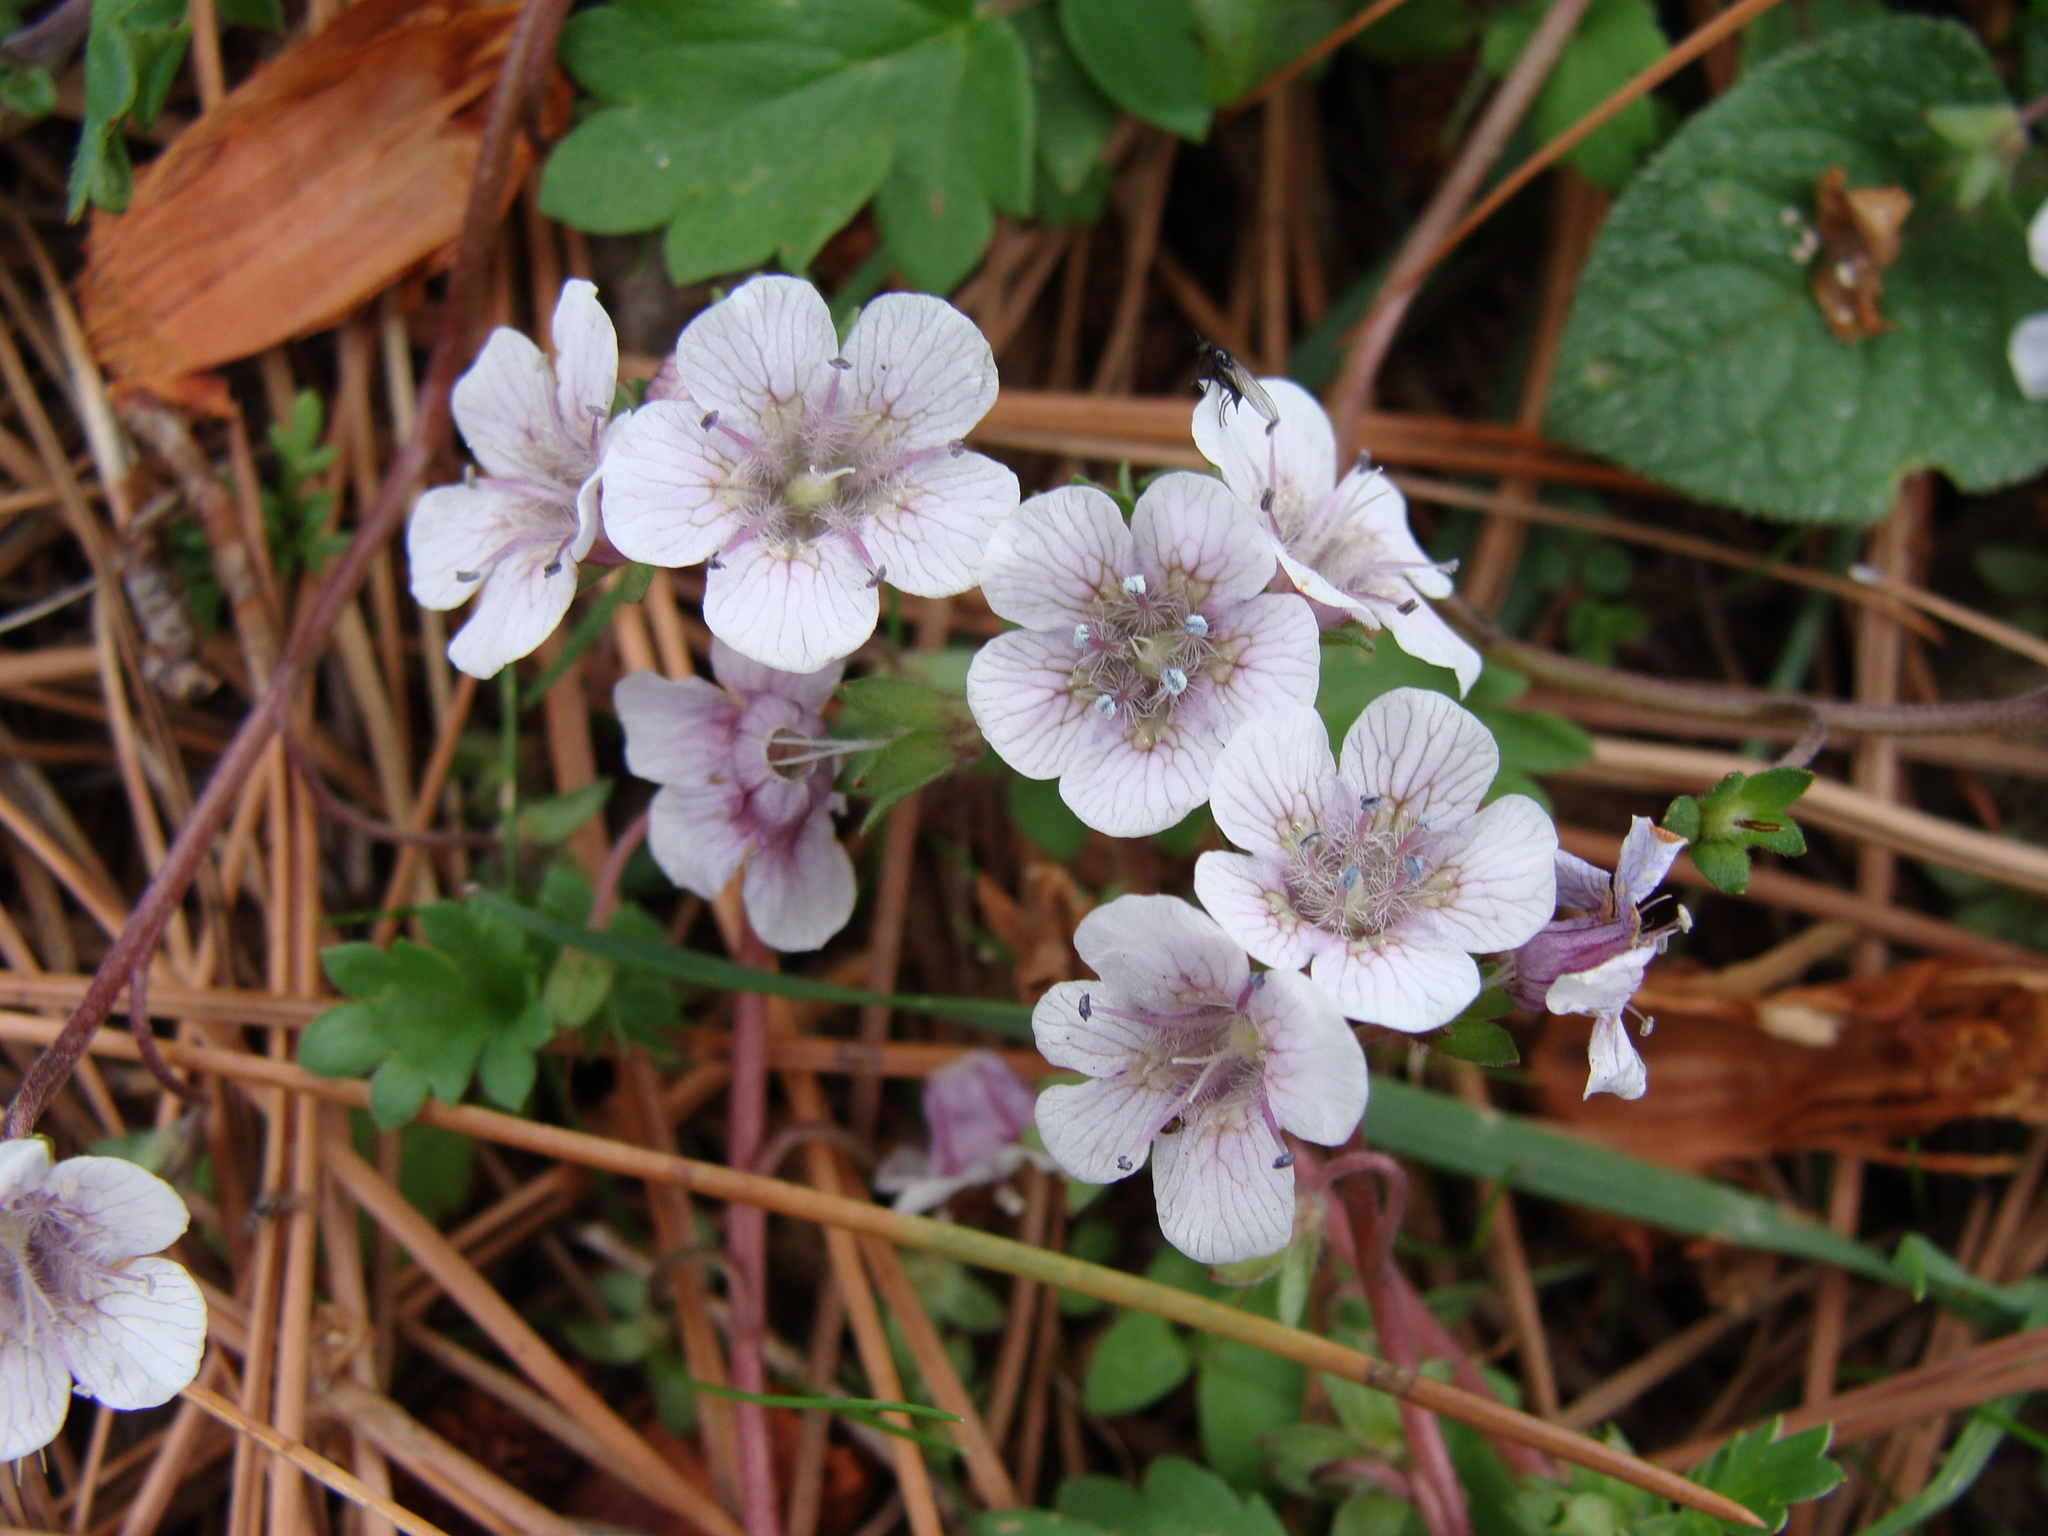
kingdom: Plantae
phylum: Tracheophyta
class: Magnoliopsida
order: Boraginales
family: Hydrophyllaceae
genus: Phacelia
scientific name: Phacelia platycarpa
